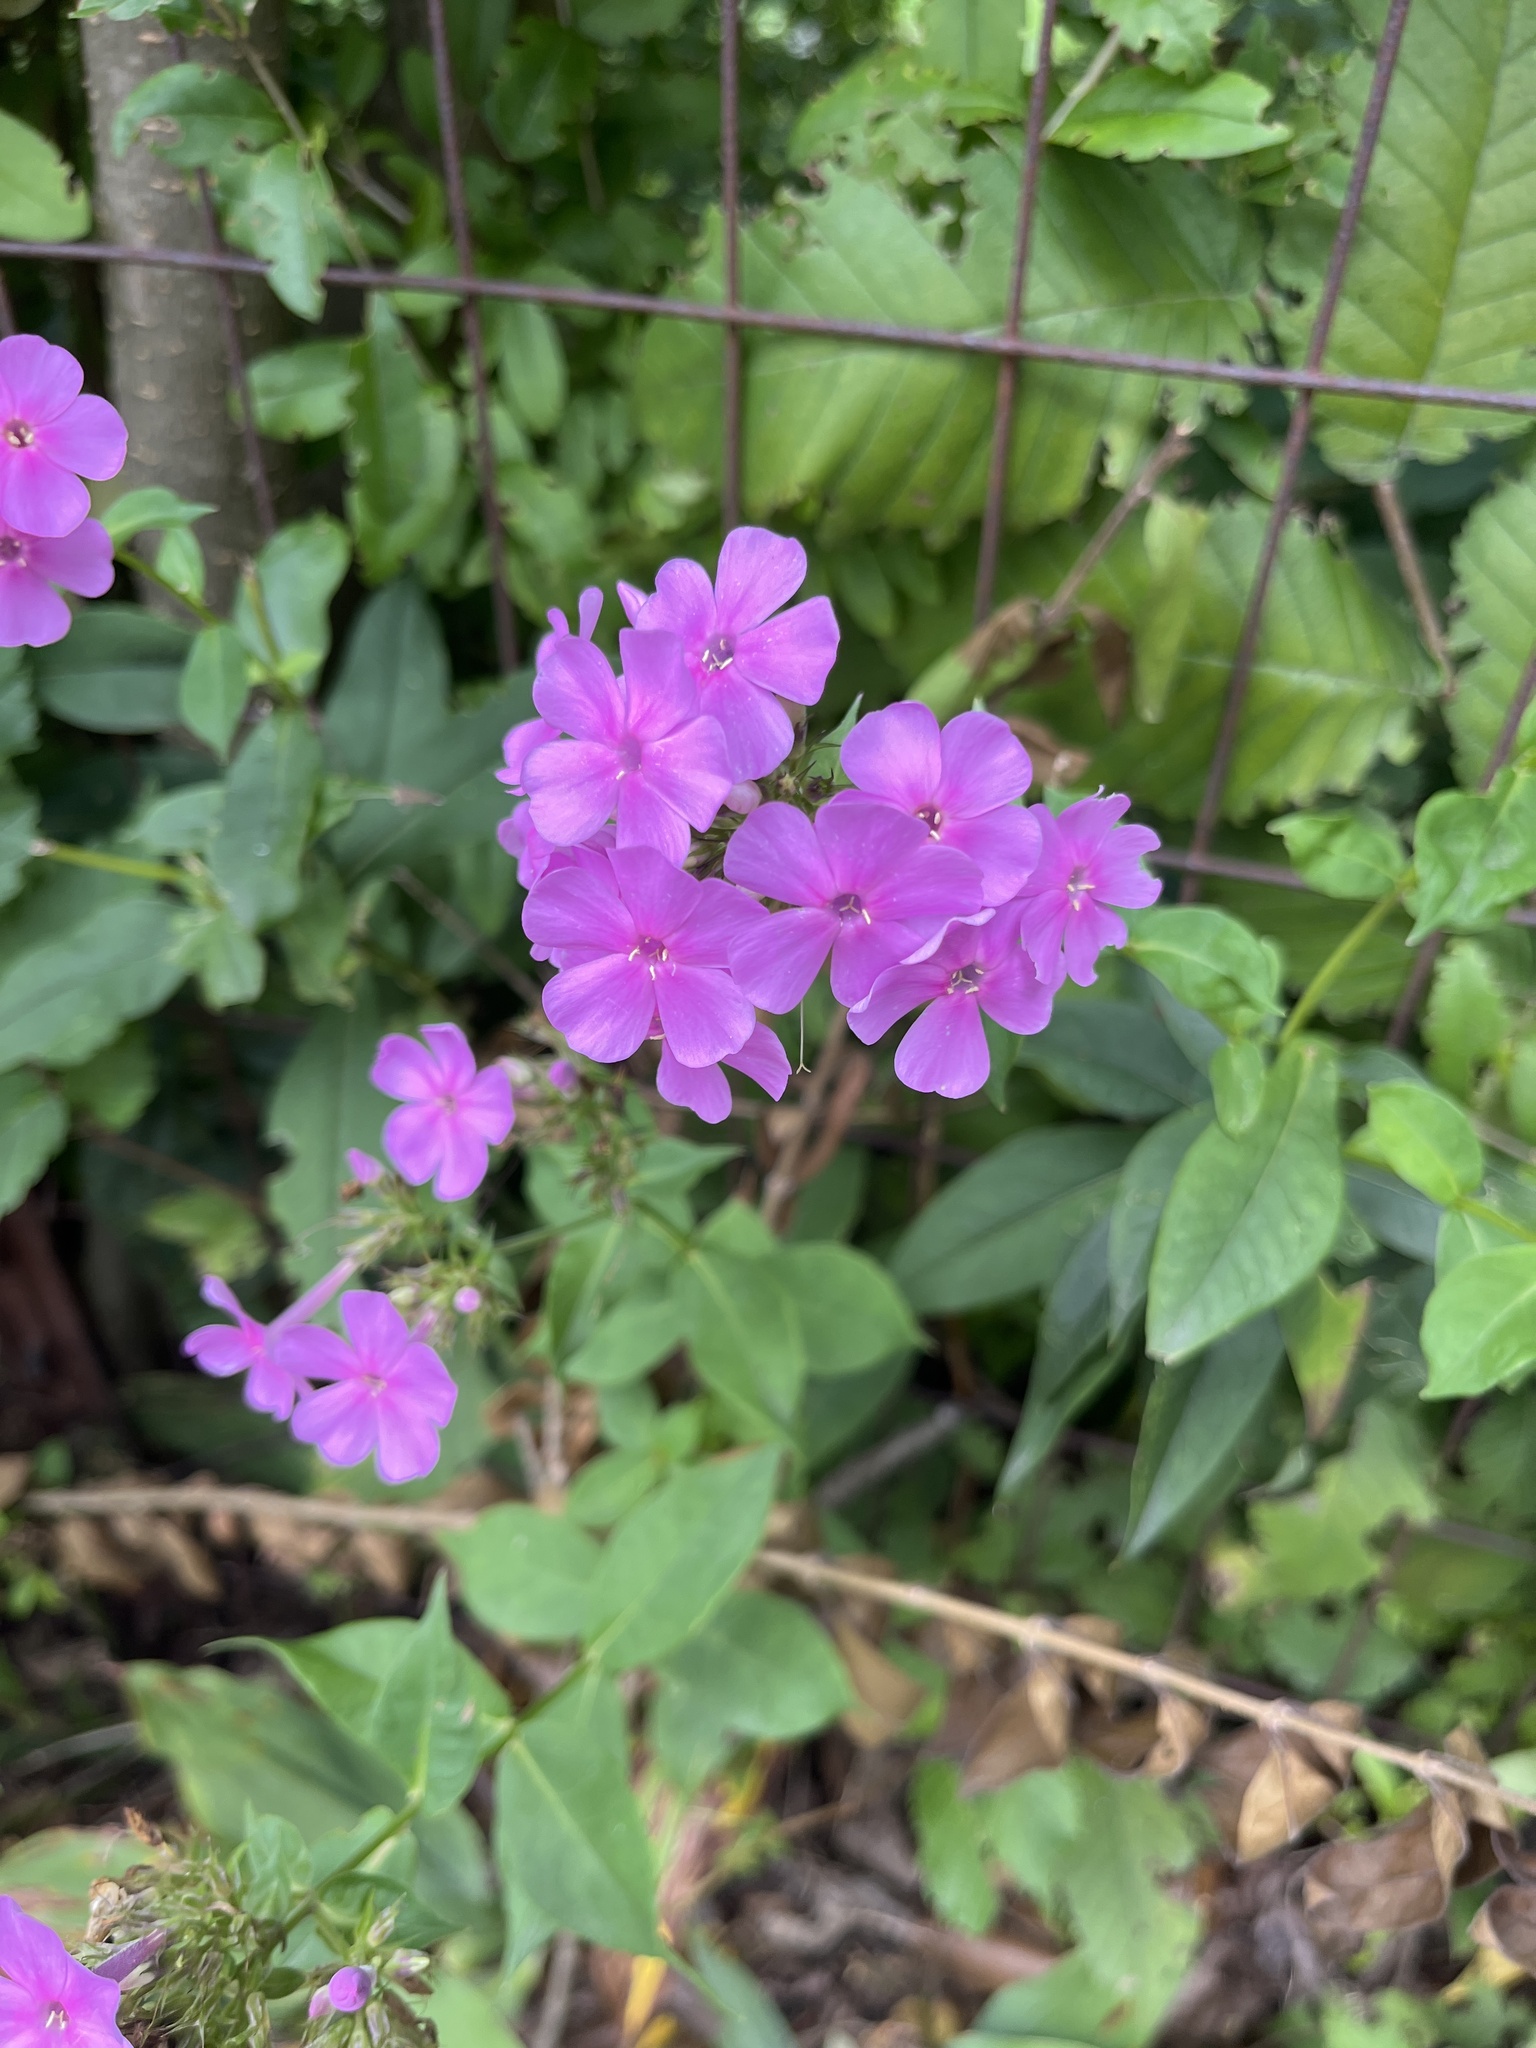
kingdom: Plantae
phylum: Tracheophyta
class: Magnoliopsida
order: Ericales
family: Polemoniaceae
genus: Phlox
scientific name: Phlox paniculata
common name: Fall phlox
